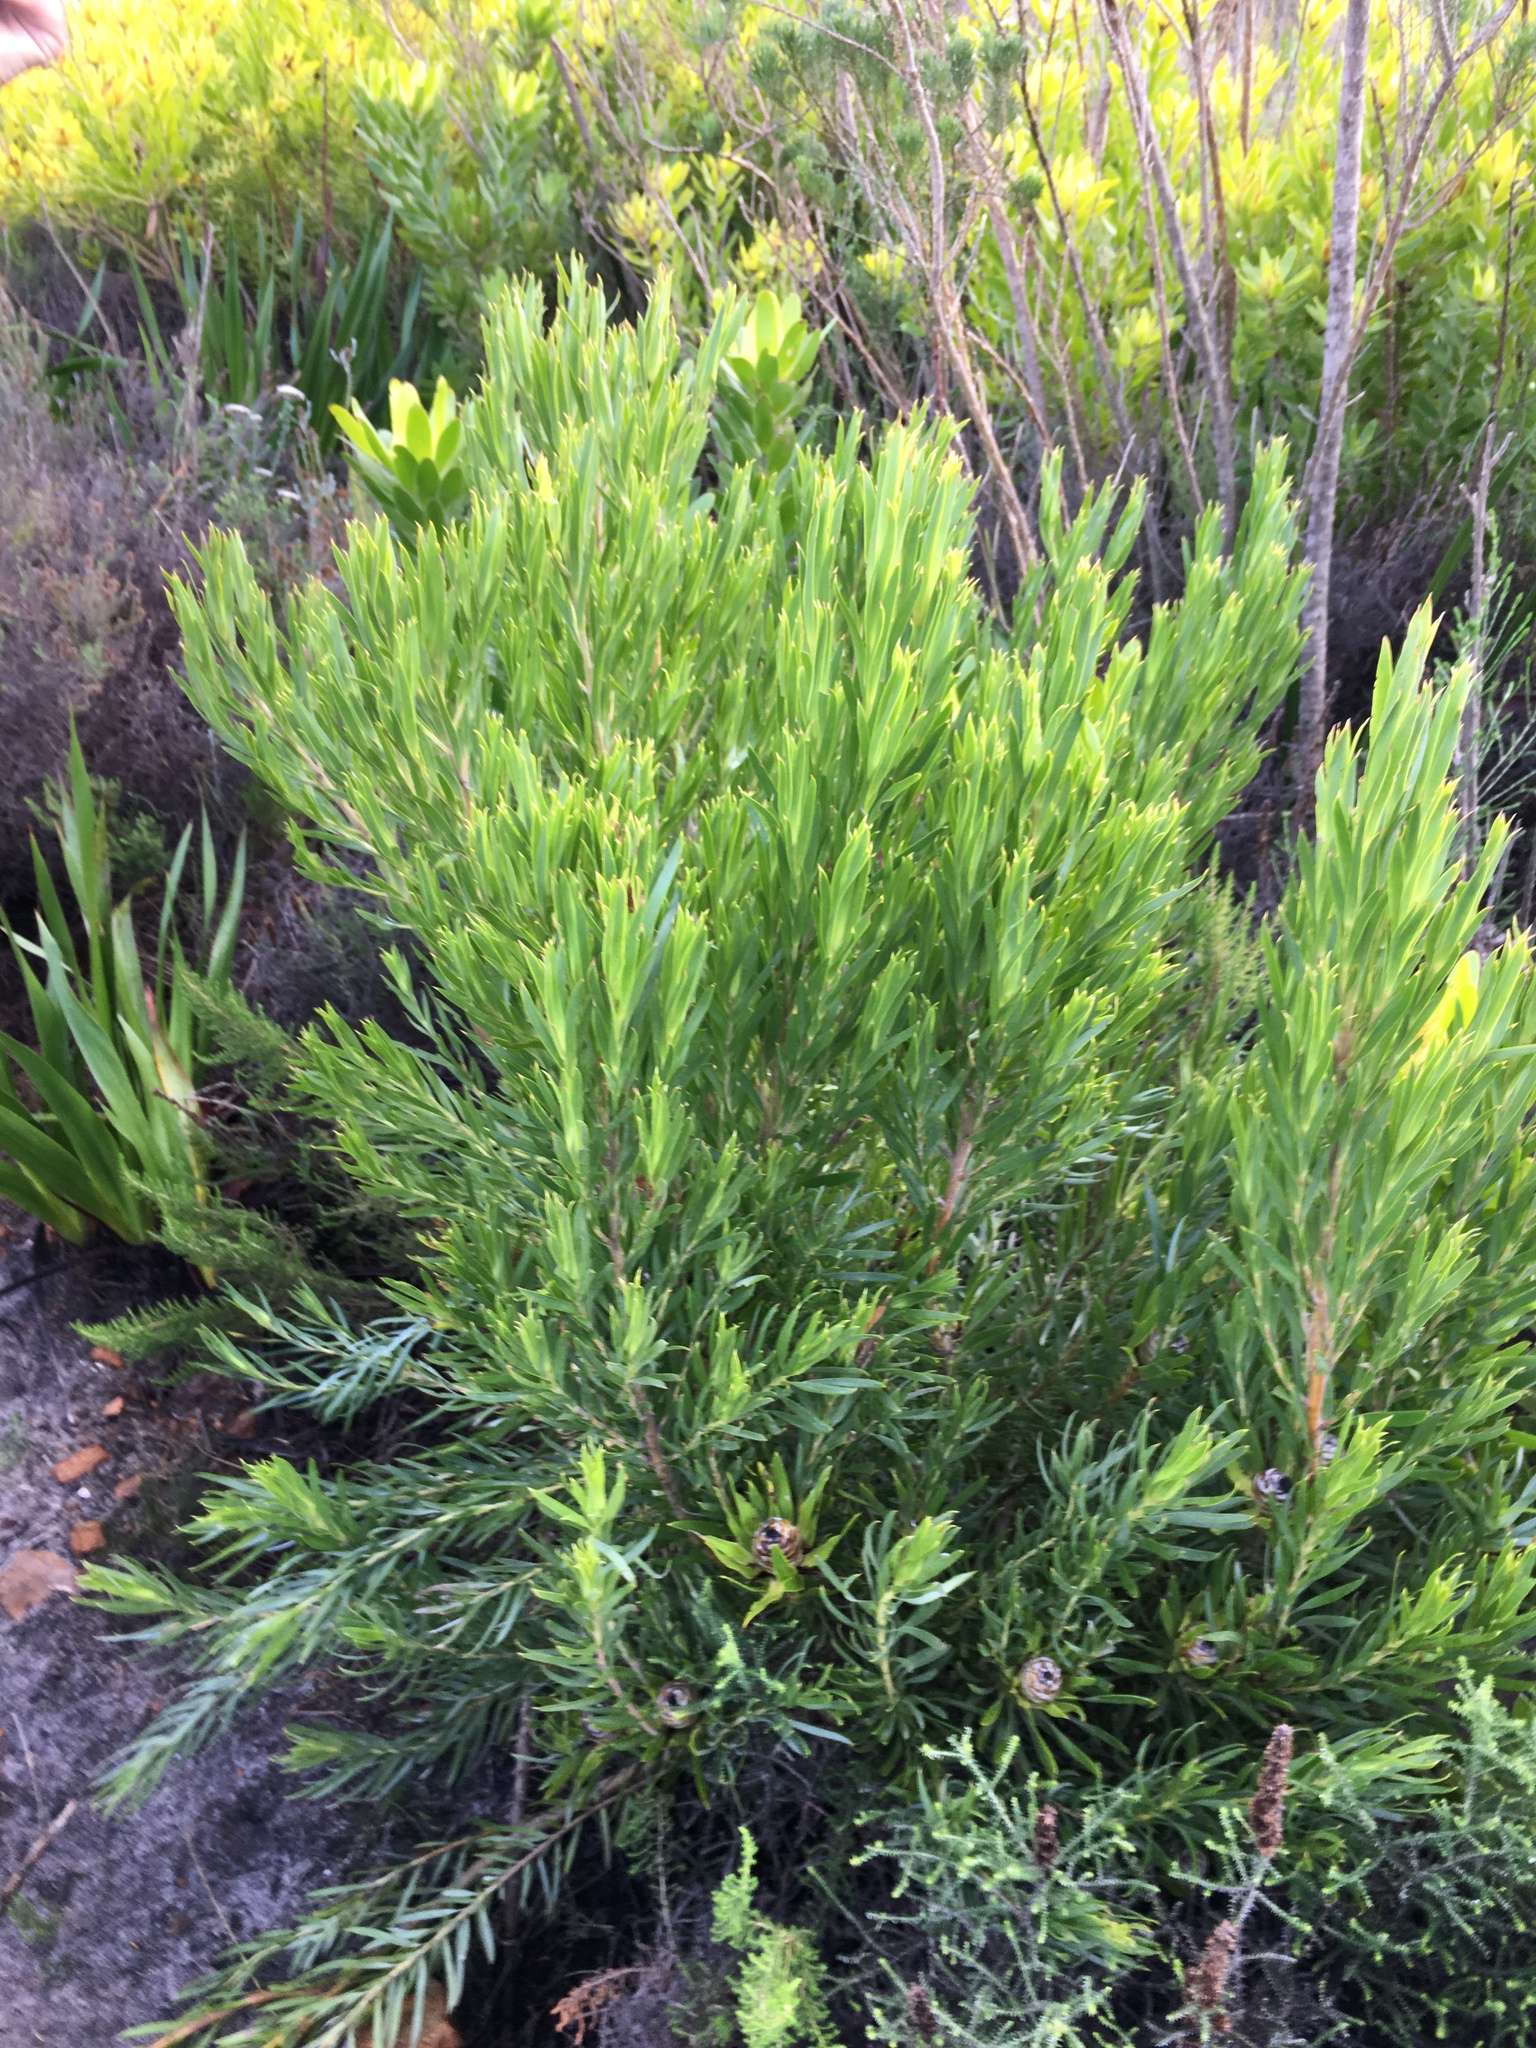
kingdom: Plantae
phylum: Tracheophyta
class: Magnoliopsida
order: Proteales
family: Proteaceae
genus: Leucadendron
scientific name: Leucadendron xanthoconus
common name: Sickle-leaf conebush
